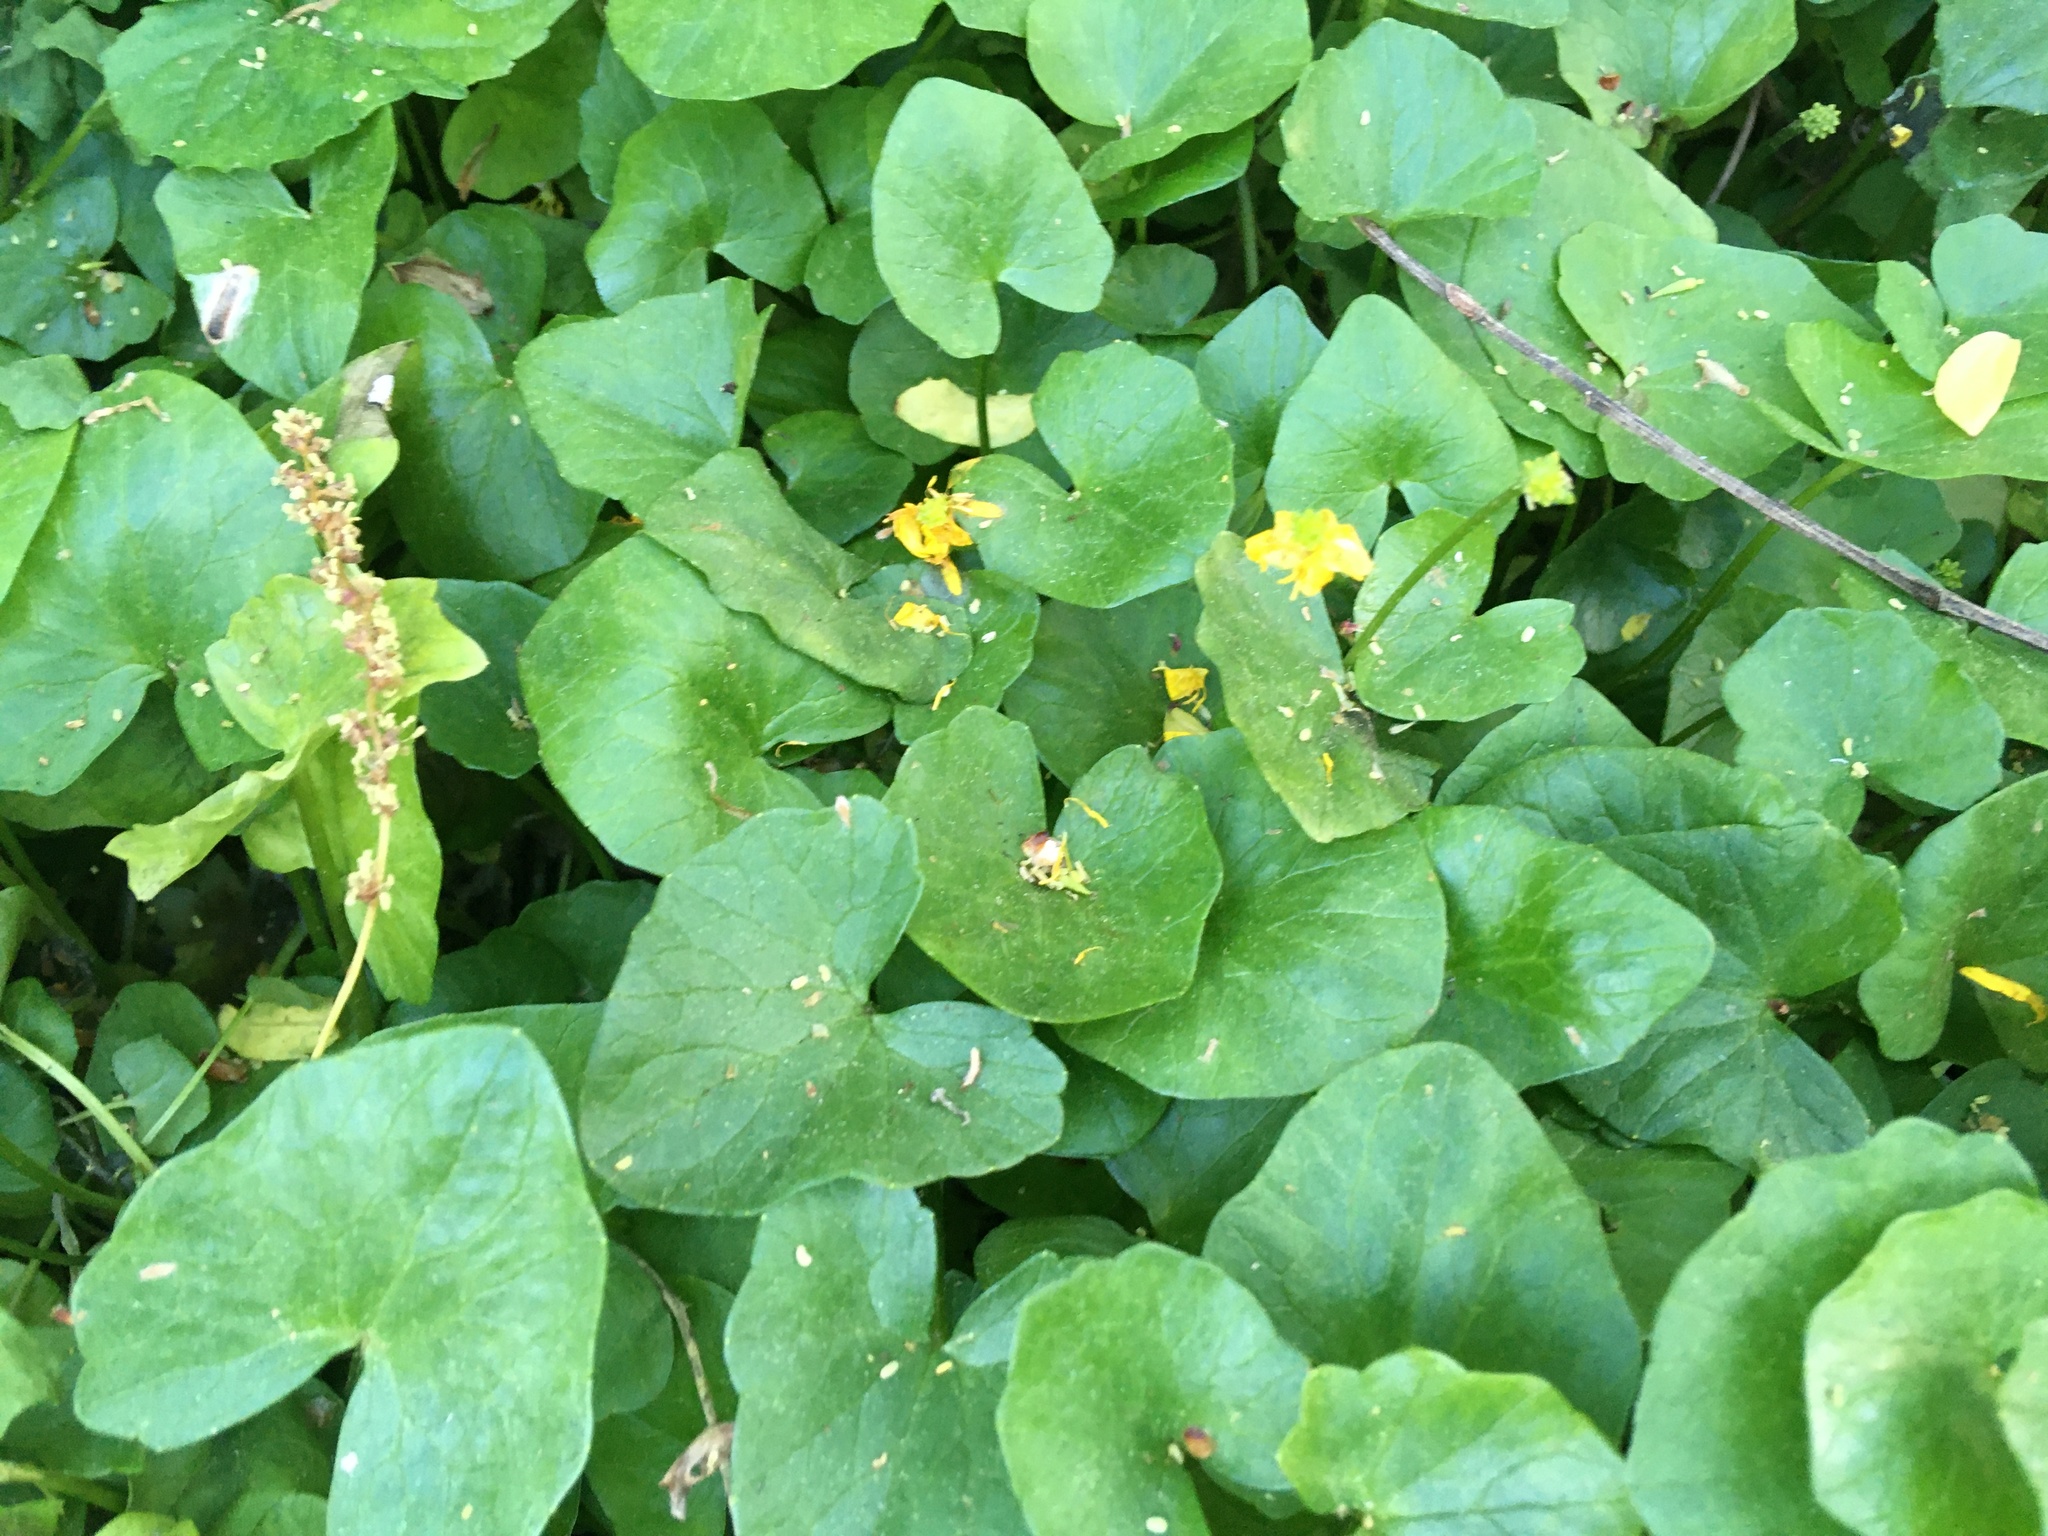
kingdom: Plantae
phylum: Tracheophyta
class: Magnoliopsida
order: Ranunculales
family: Ranunculaceae
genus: Ficaria
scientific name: Ficaria verna
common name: Lesser celandine
